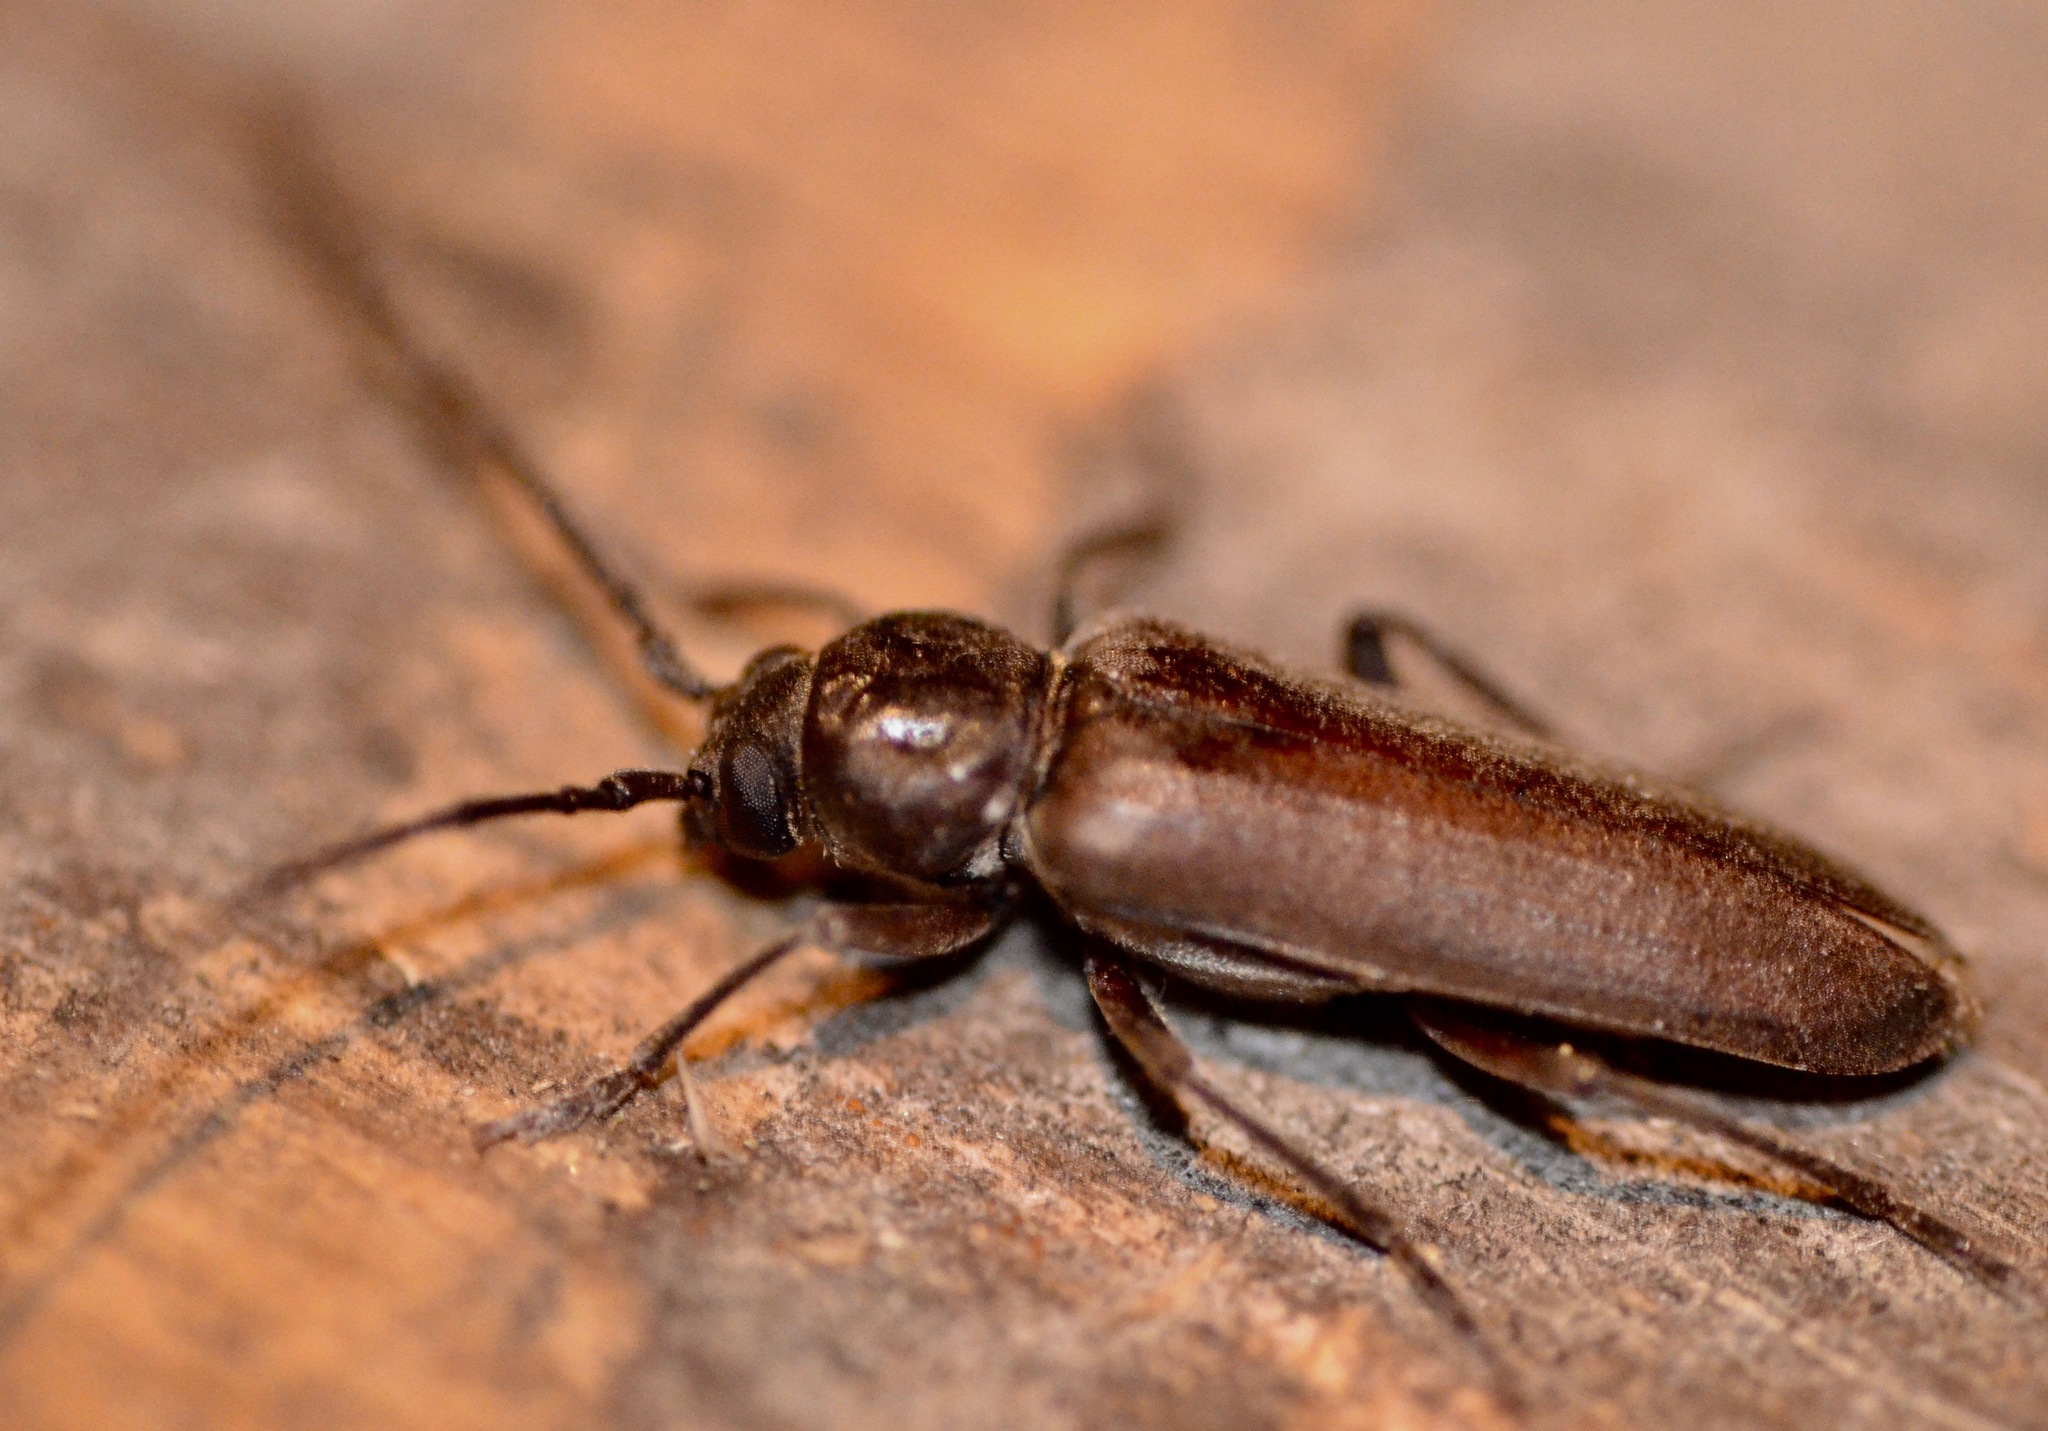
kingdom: Animalia
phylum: Arthropoda
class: Insecta
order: Coleoptera
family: Cerambycidae
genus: Arhopalus
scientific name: Arhopalus ferus
